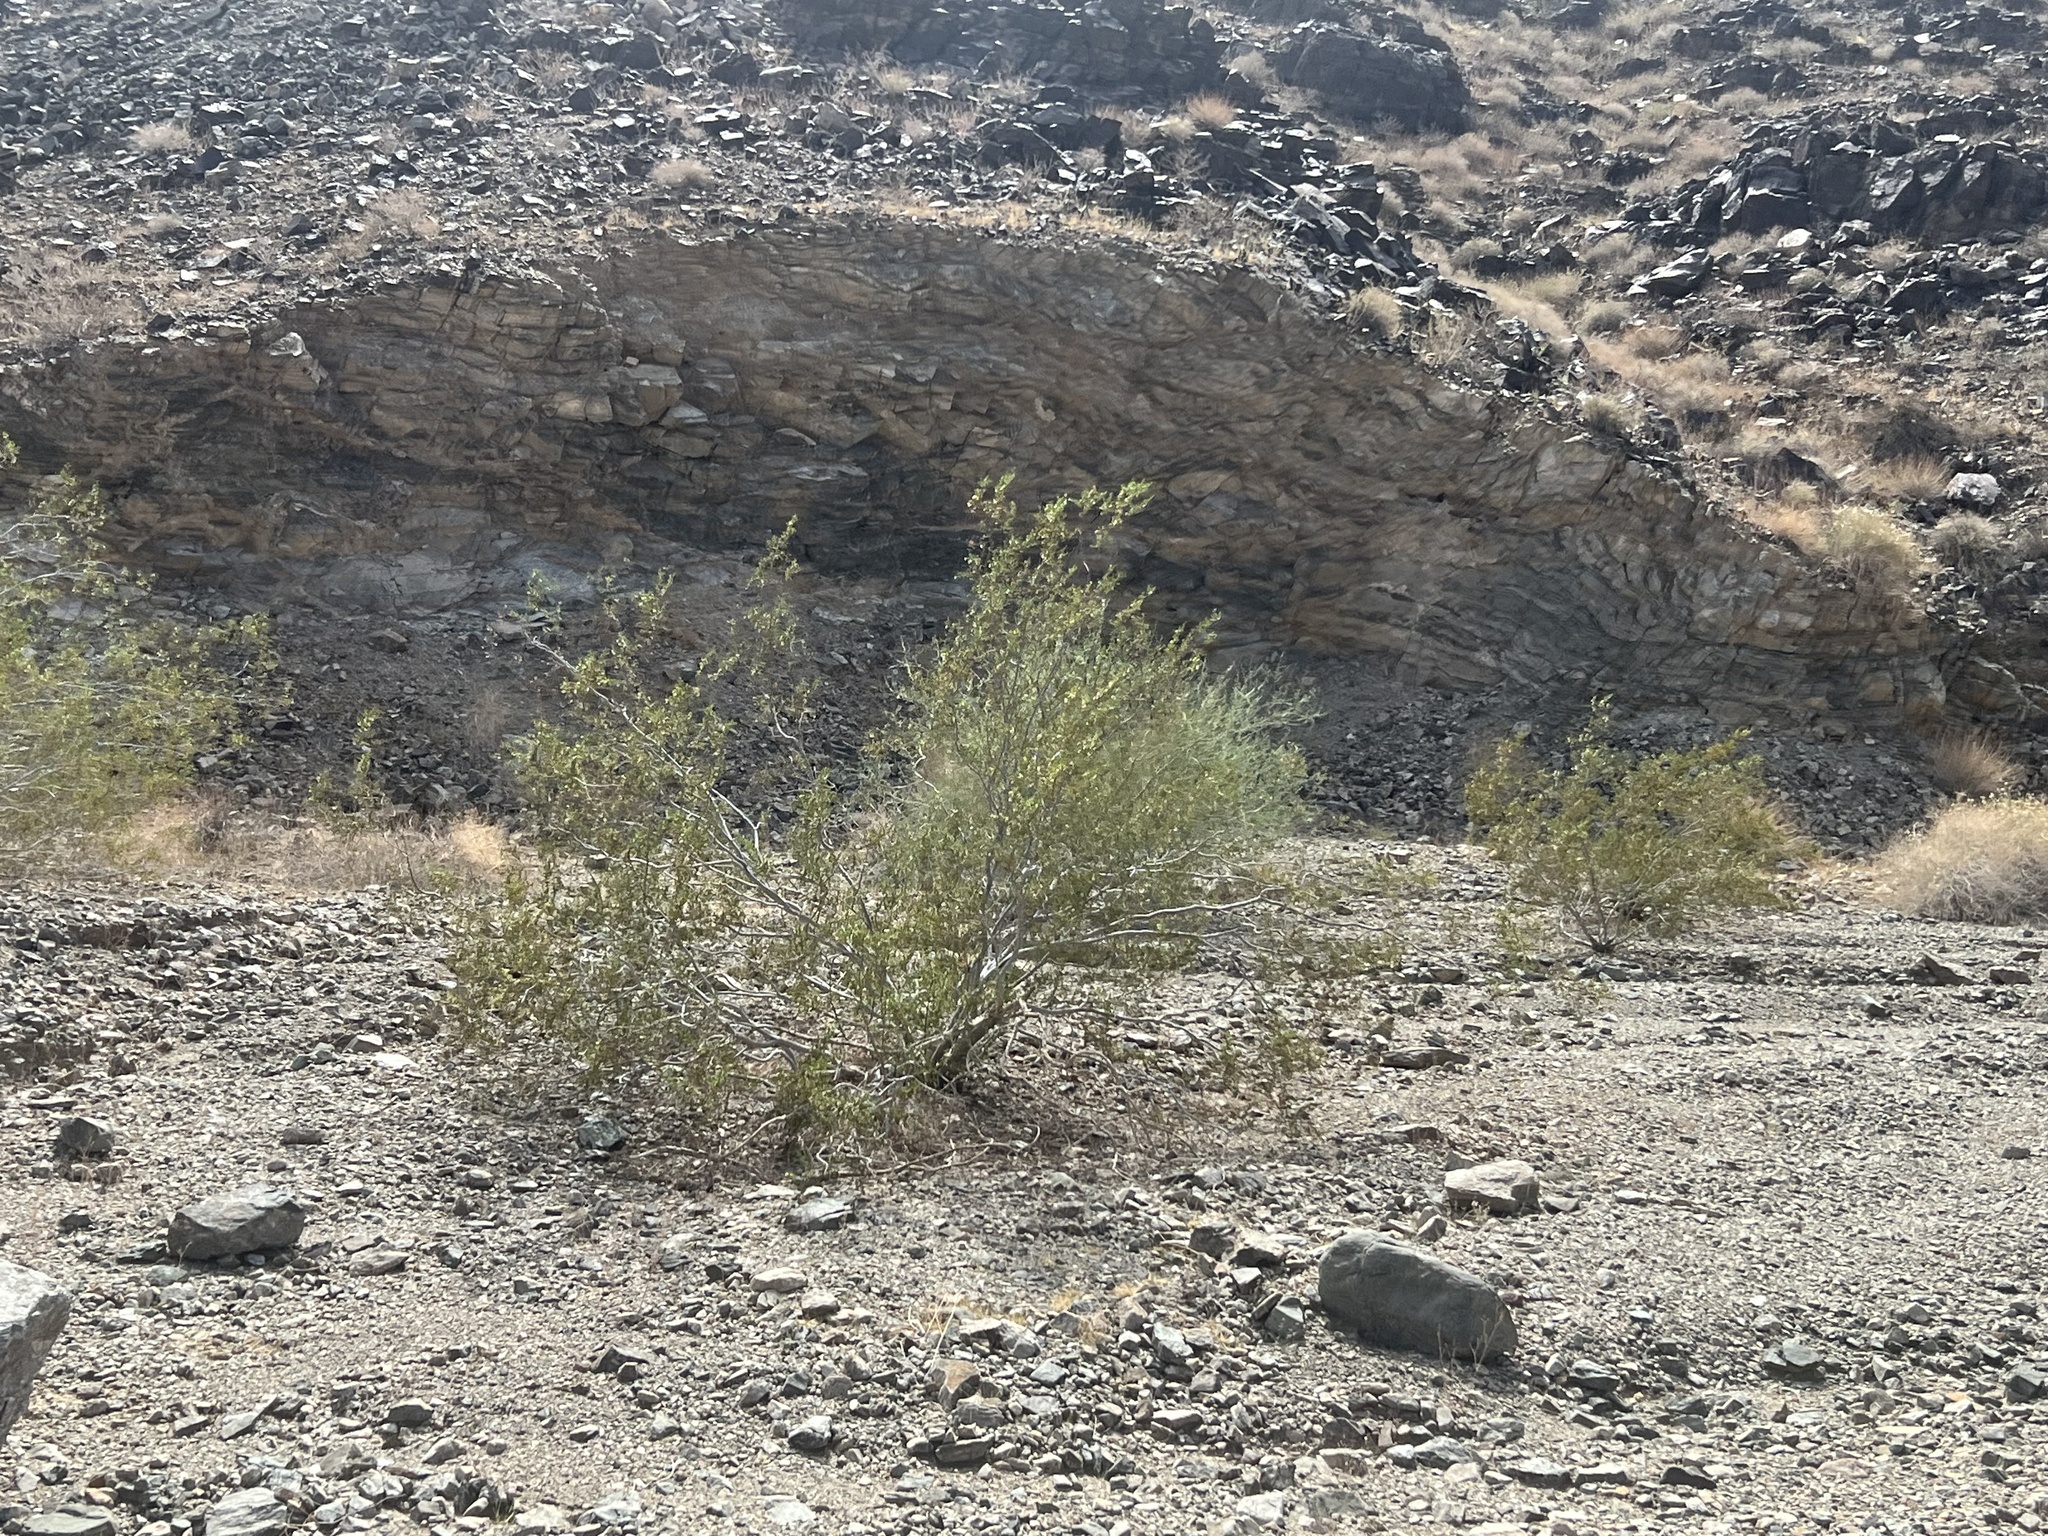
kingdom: Plantae
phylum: Tracheophyta
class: Magnoliopsida
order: Zygophyllales
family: Zygophyllaceae
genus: Larrea
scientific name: Larrea tridentata
